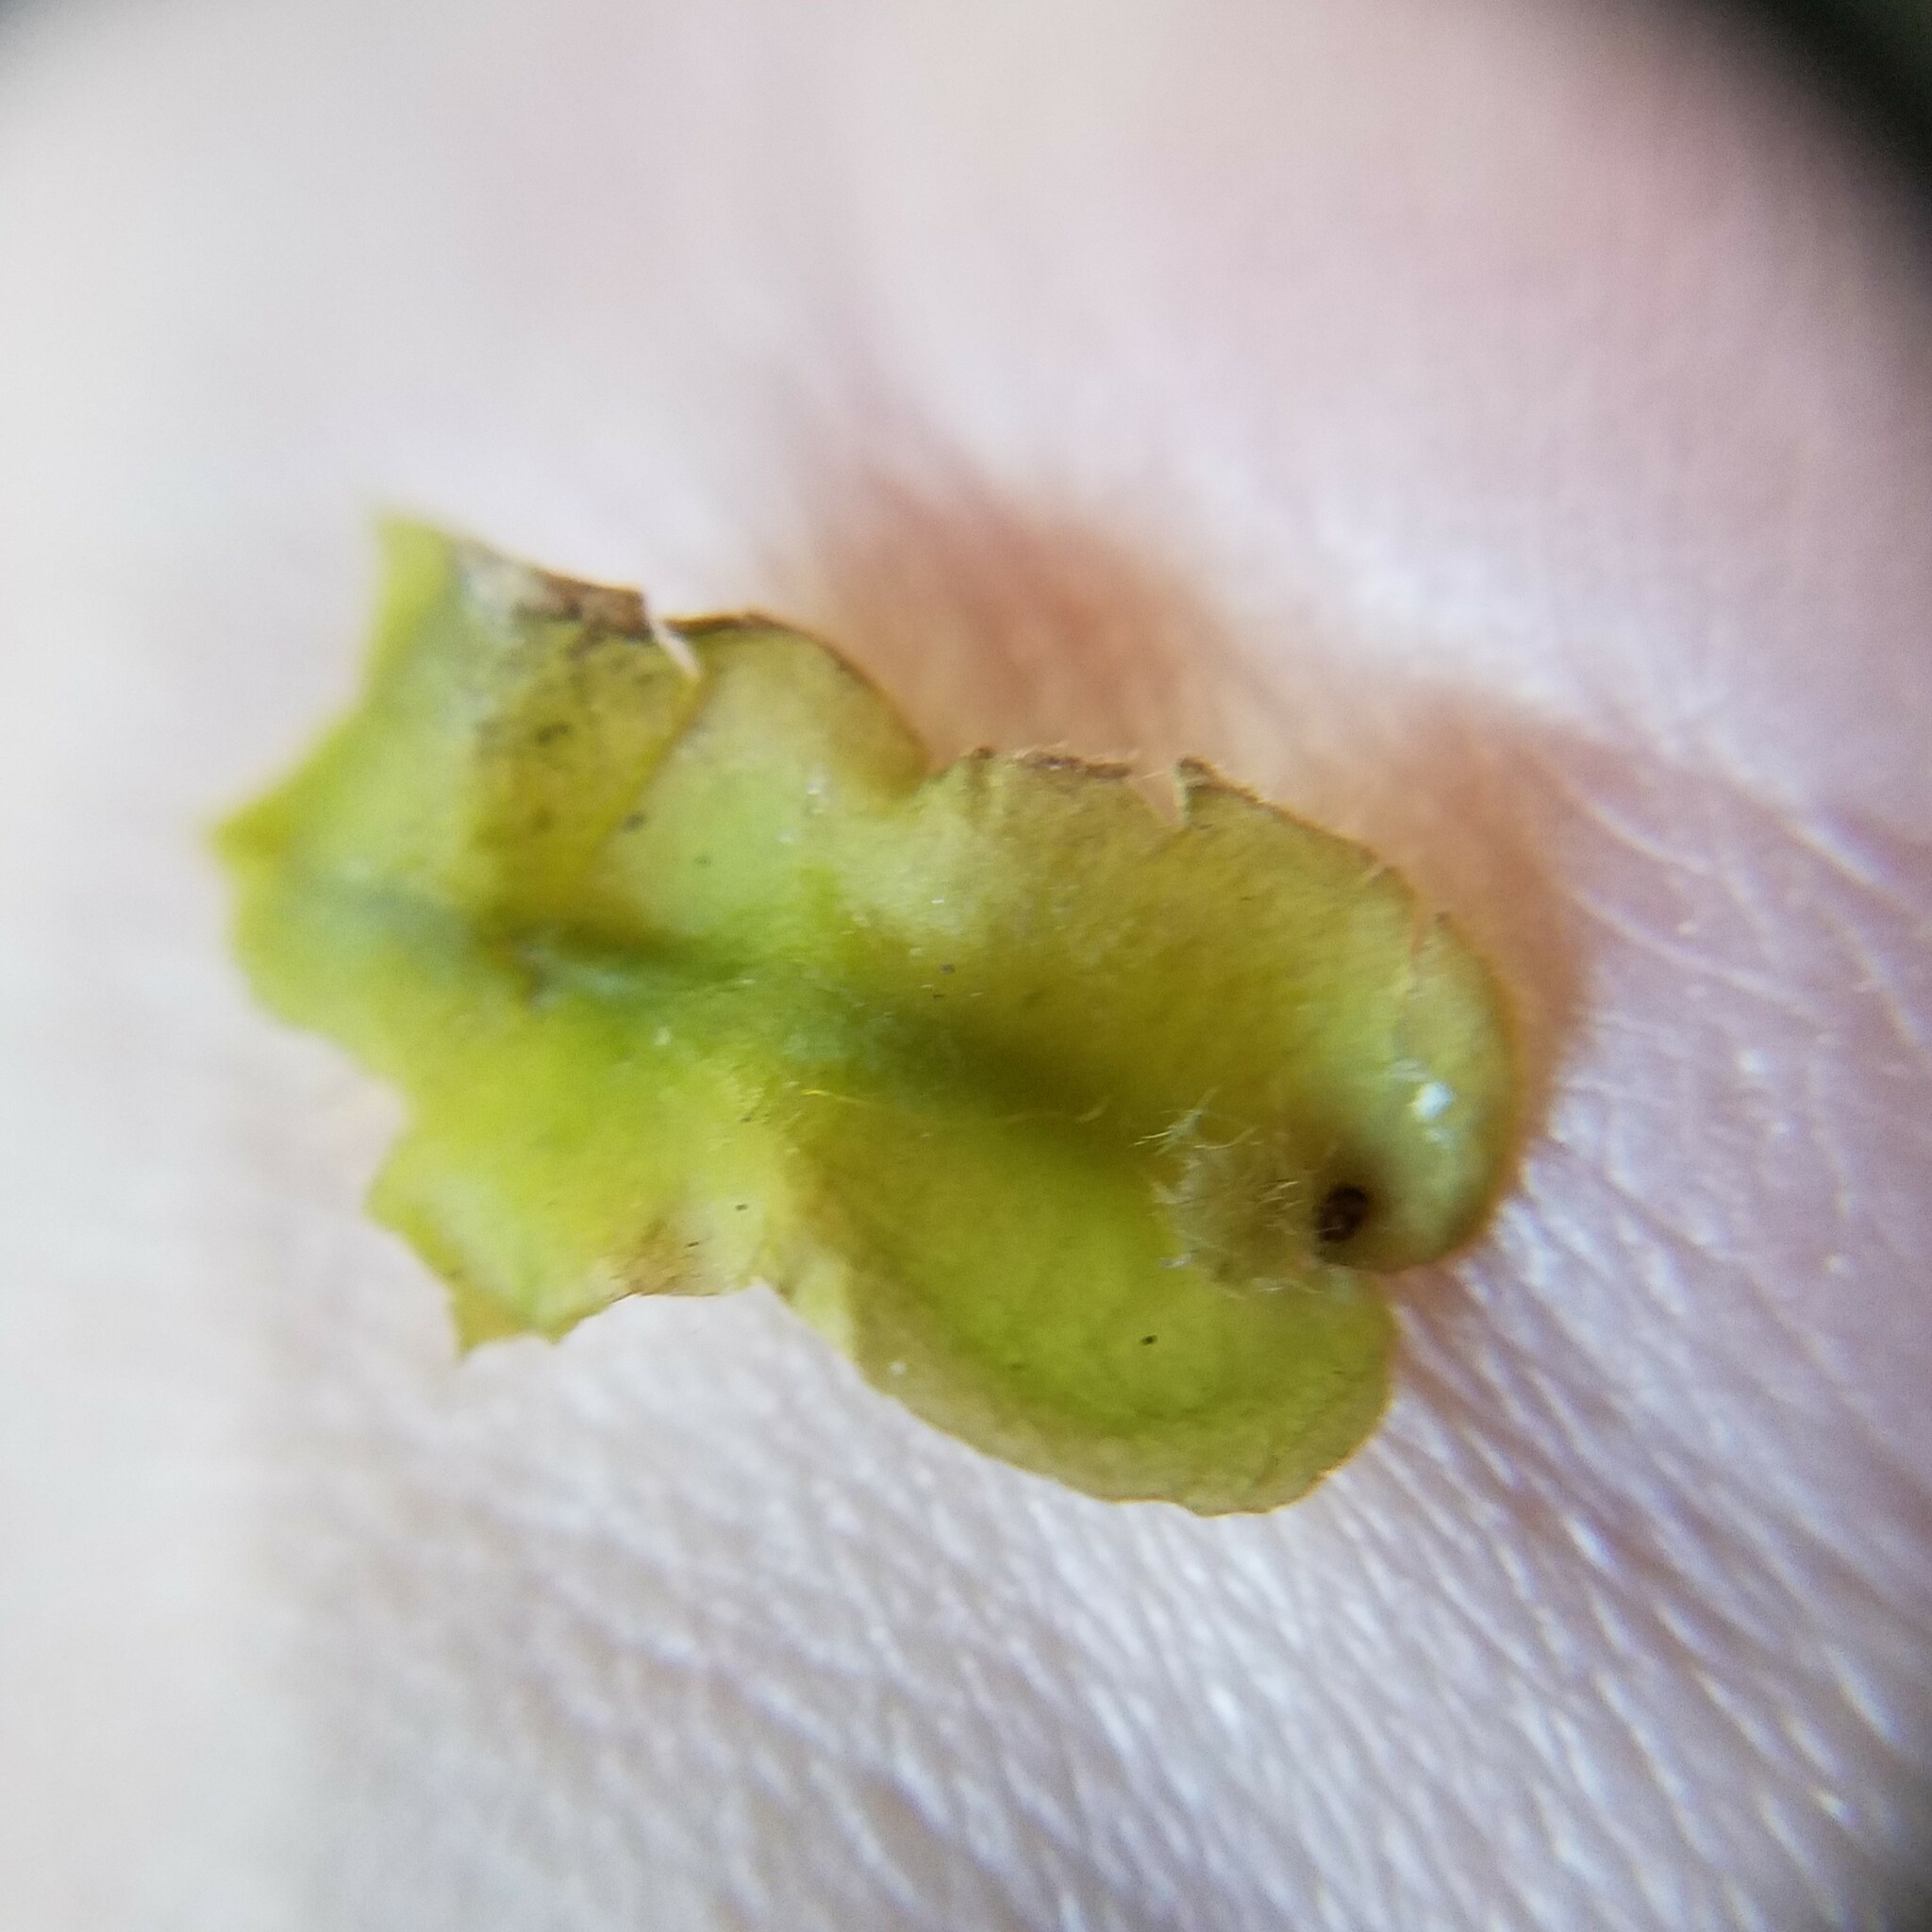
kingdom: Plantae
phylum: Marchantiophyta
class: Marchantiopsida
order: Marchantiales
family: Dumortieraceae
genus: Dumortiera
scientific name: Dumortiera hirsuta
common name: Dumortier's liverwort
